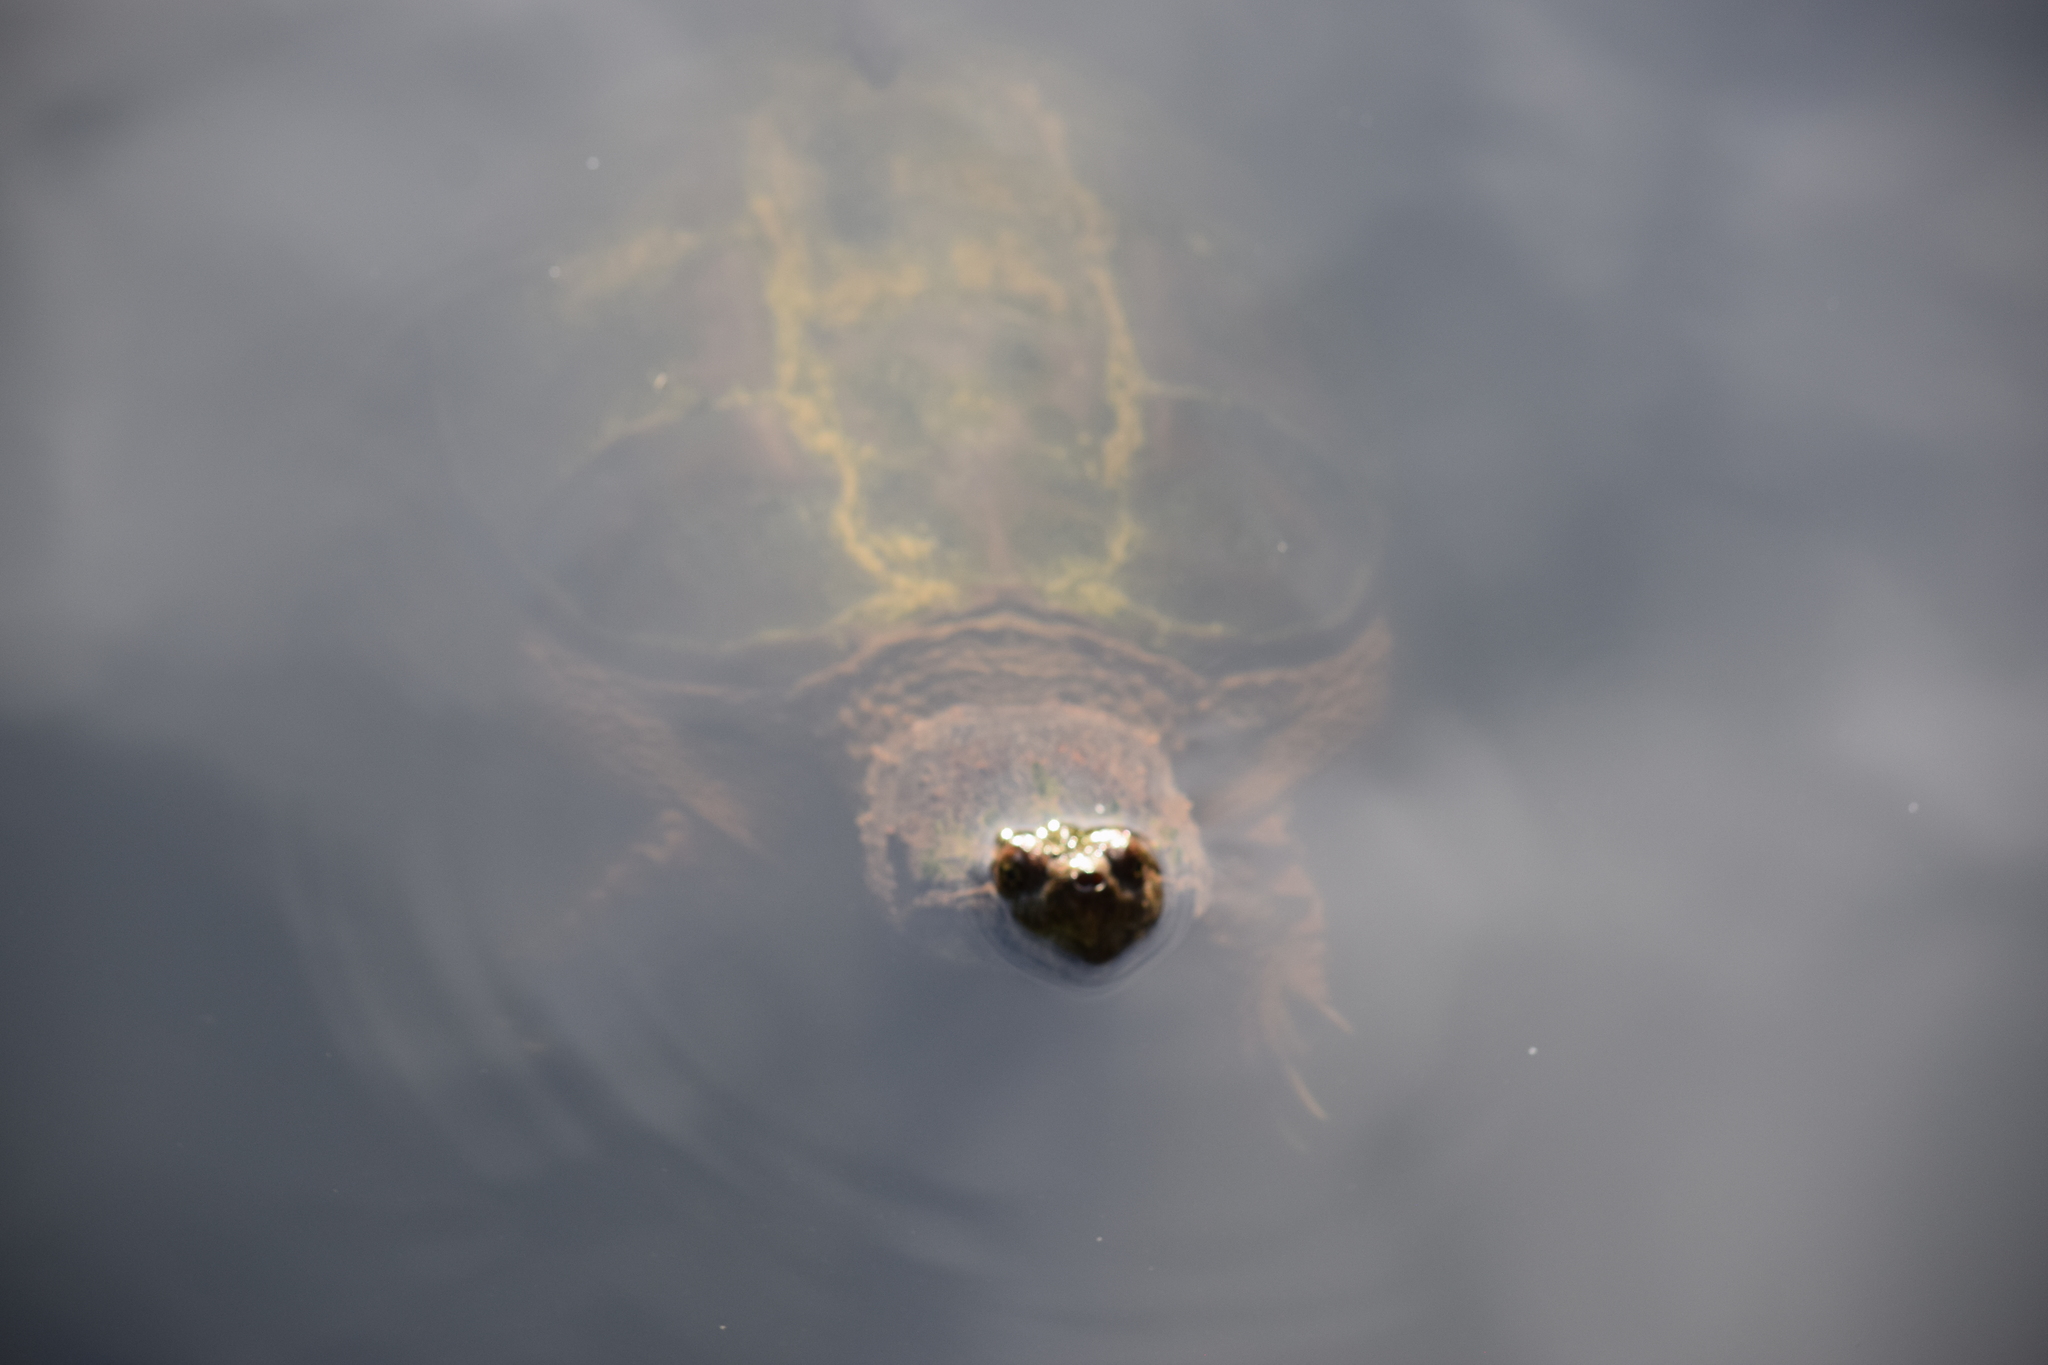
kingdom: Animalia
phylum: Chordata
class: Testudines
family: Chelydridae
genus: Chelydra
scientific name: Chelydra serpentina
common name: Common snapping turtle
